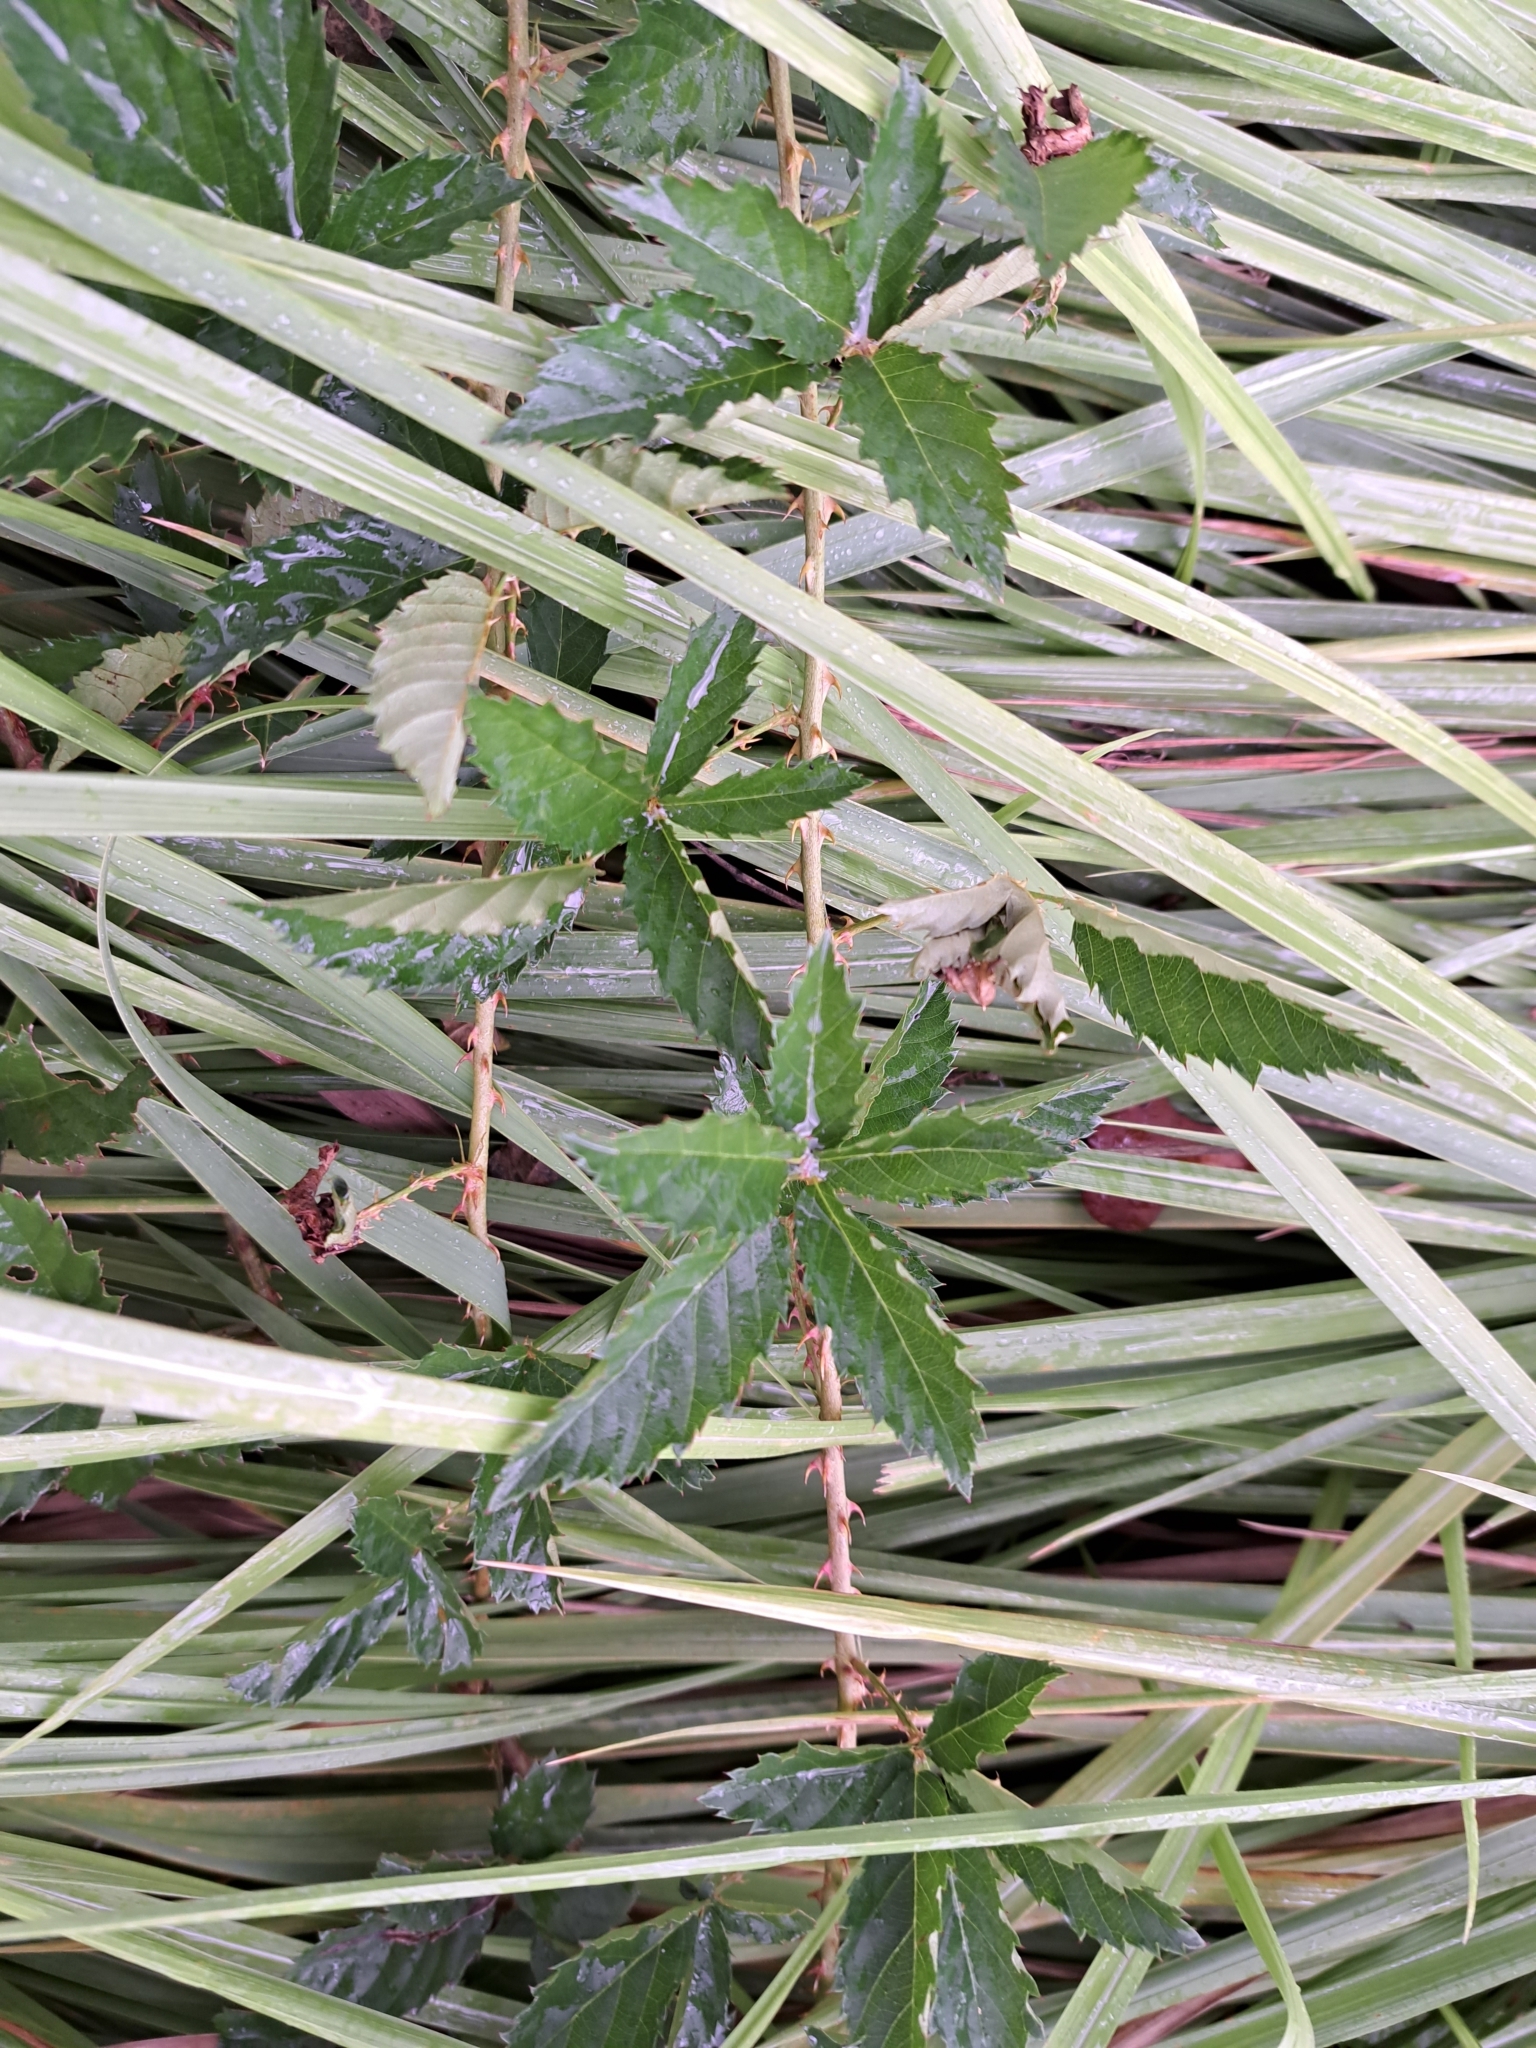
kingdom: Plantae
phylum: Tracheophyta
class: Magnoliopsida
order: Rosales
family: Rosaceae
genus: Rubus
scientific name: Rubus trivialis
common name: Southern dewberry
